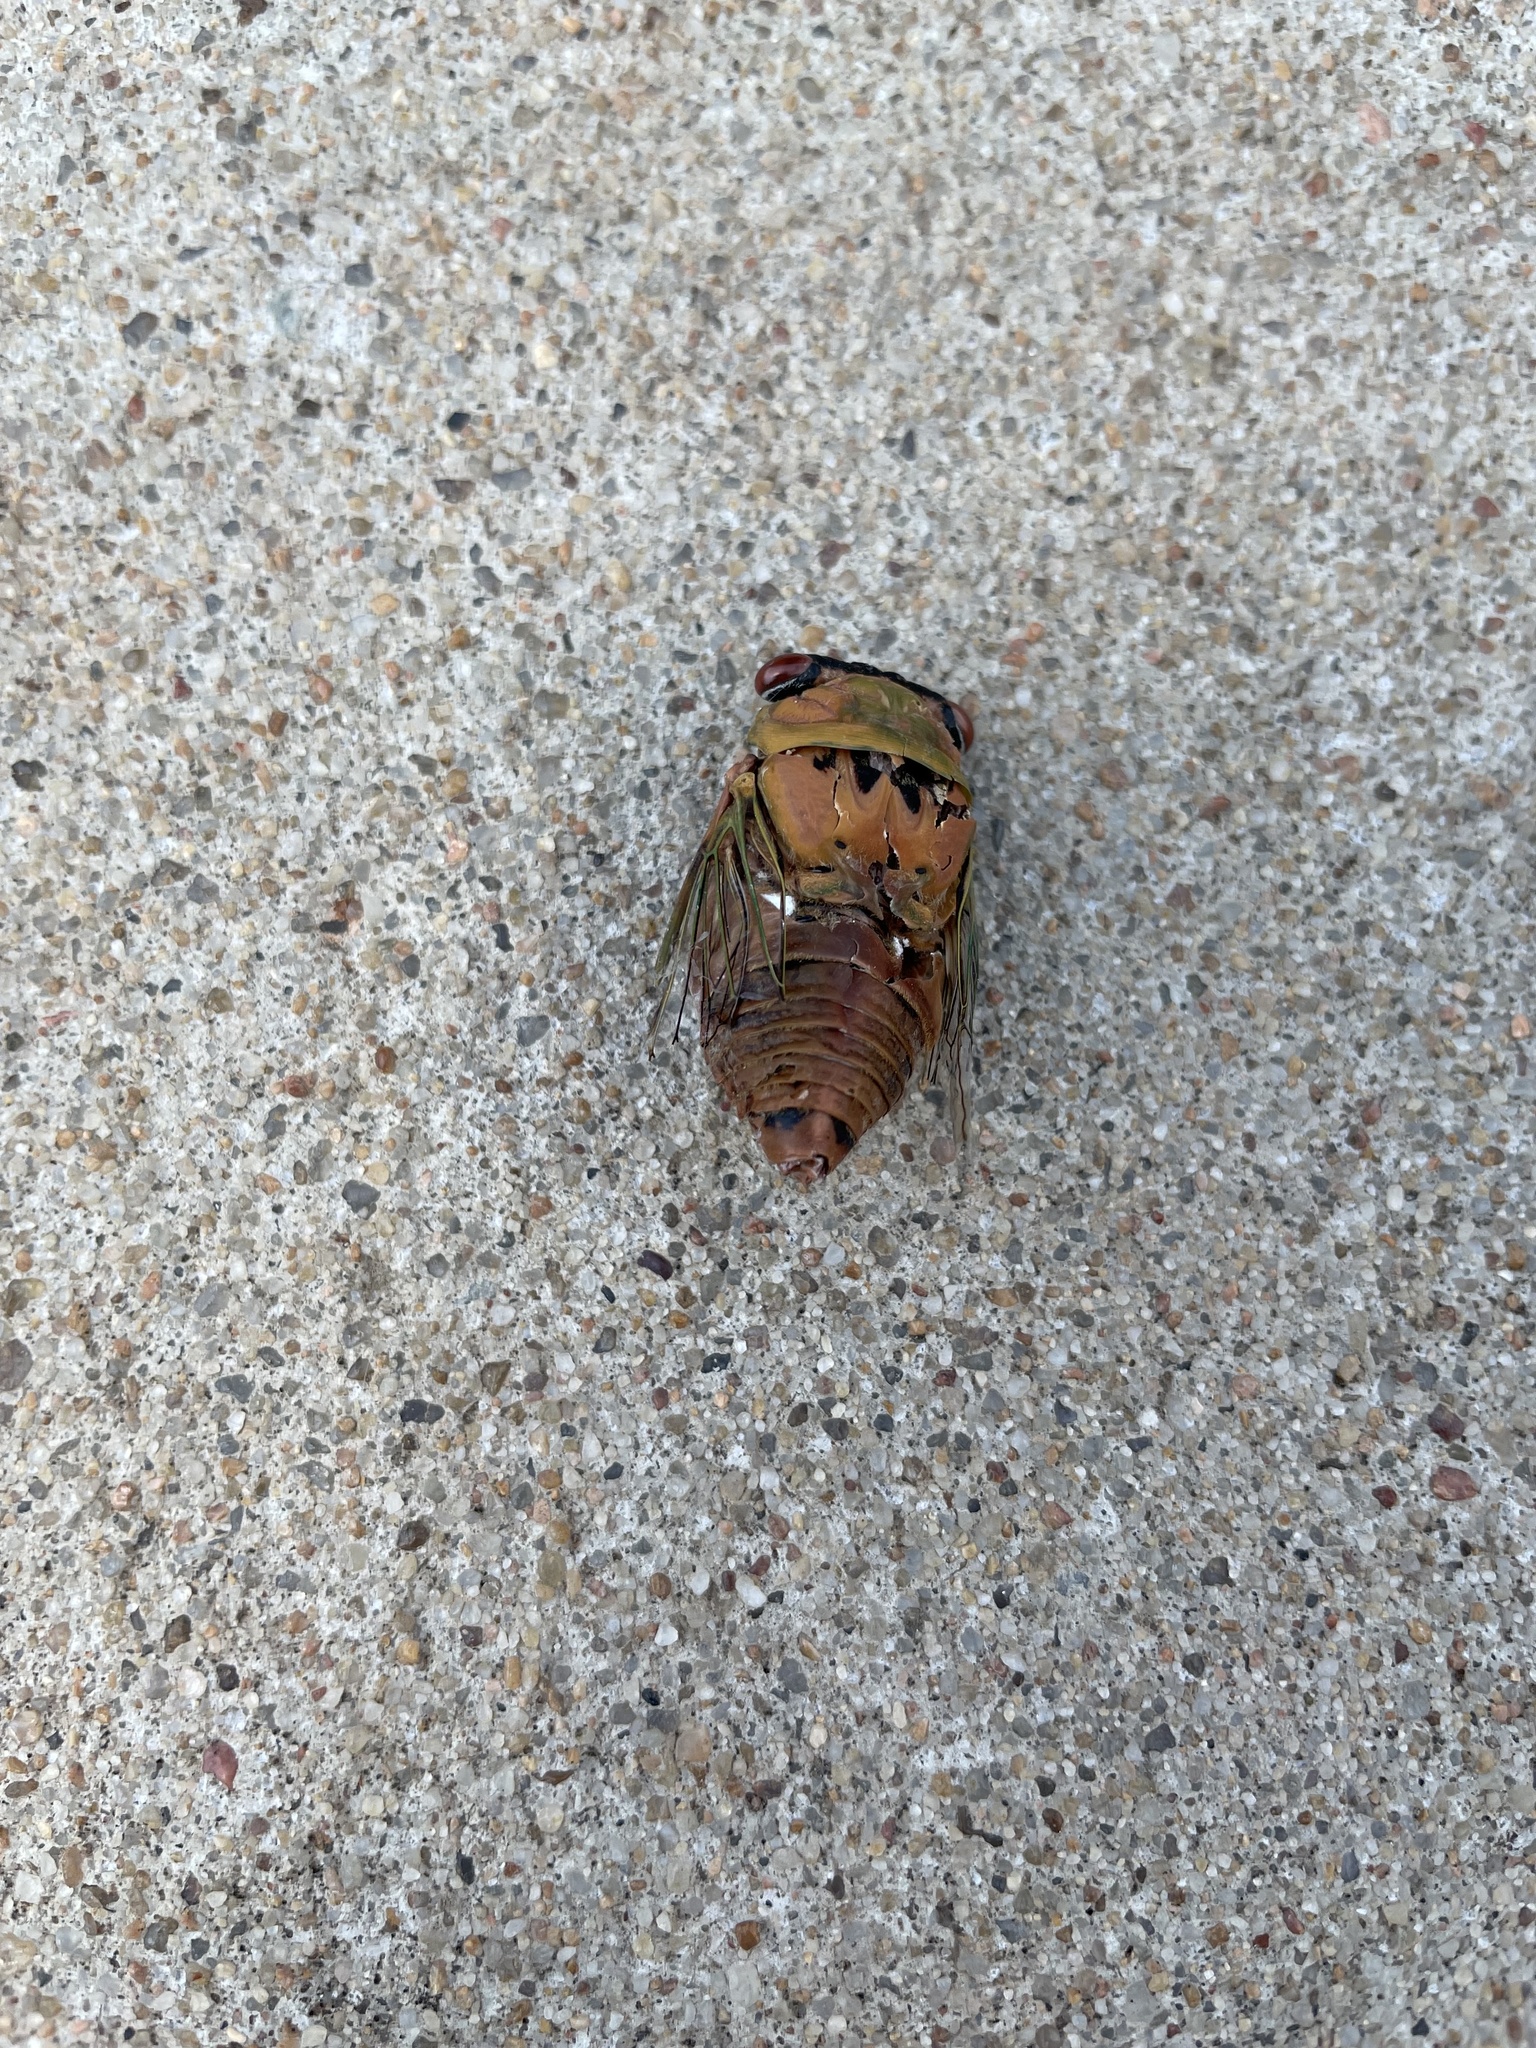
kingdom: Animalia
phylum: Arthropoda
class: Insecta
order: Hemiptera
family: Cicadidae
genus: Neotibicen
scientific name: Neotibicen superbus
